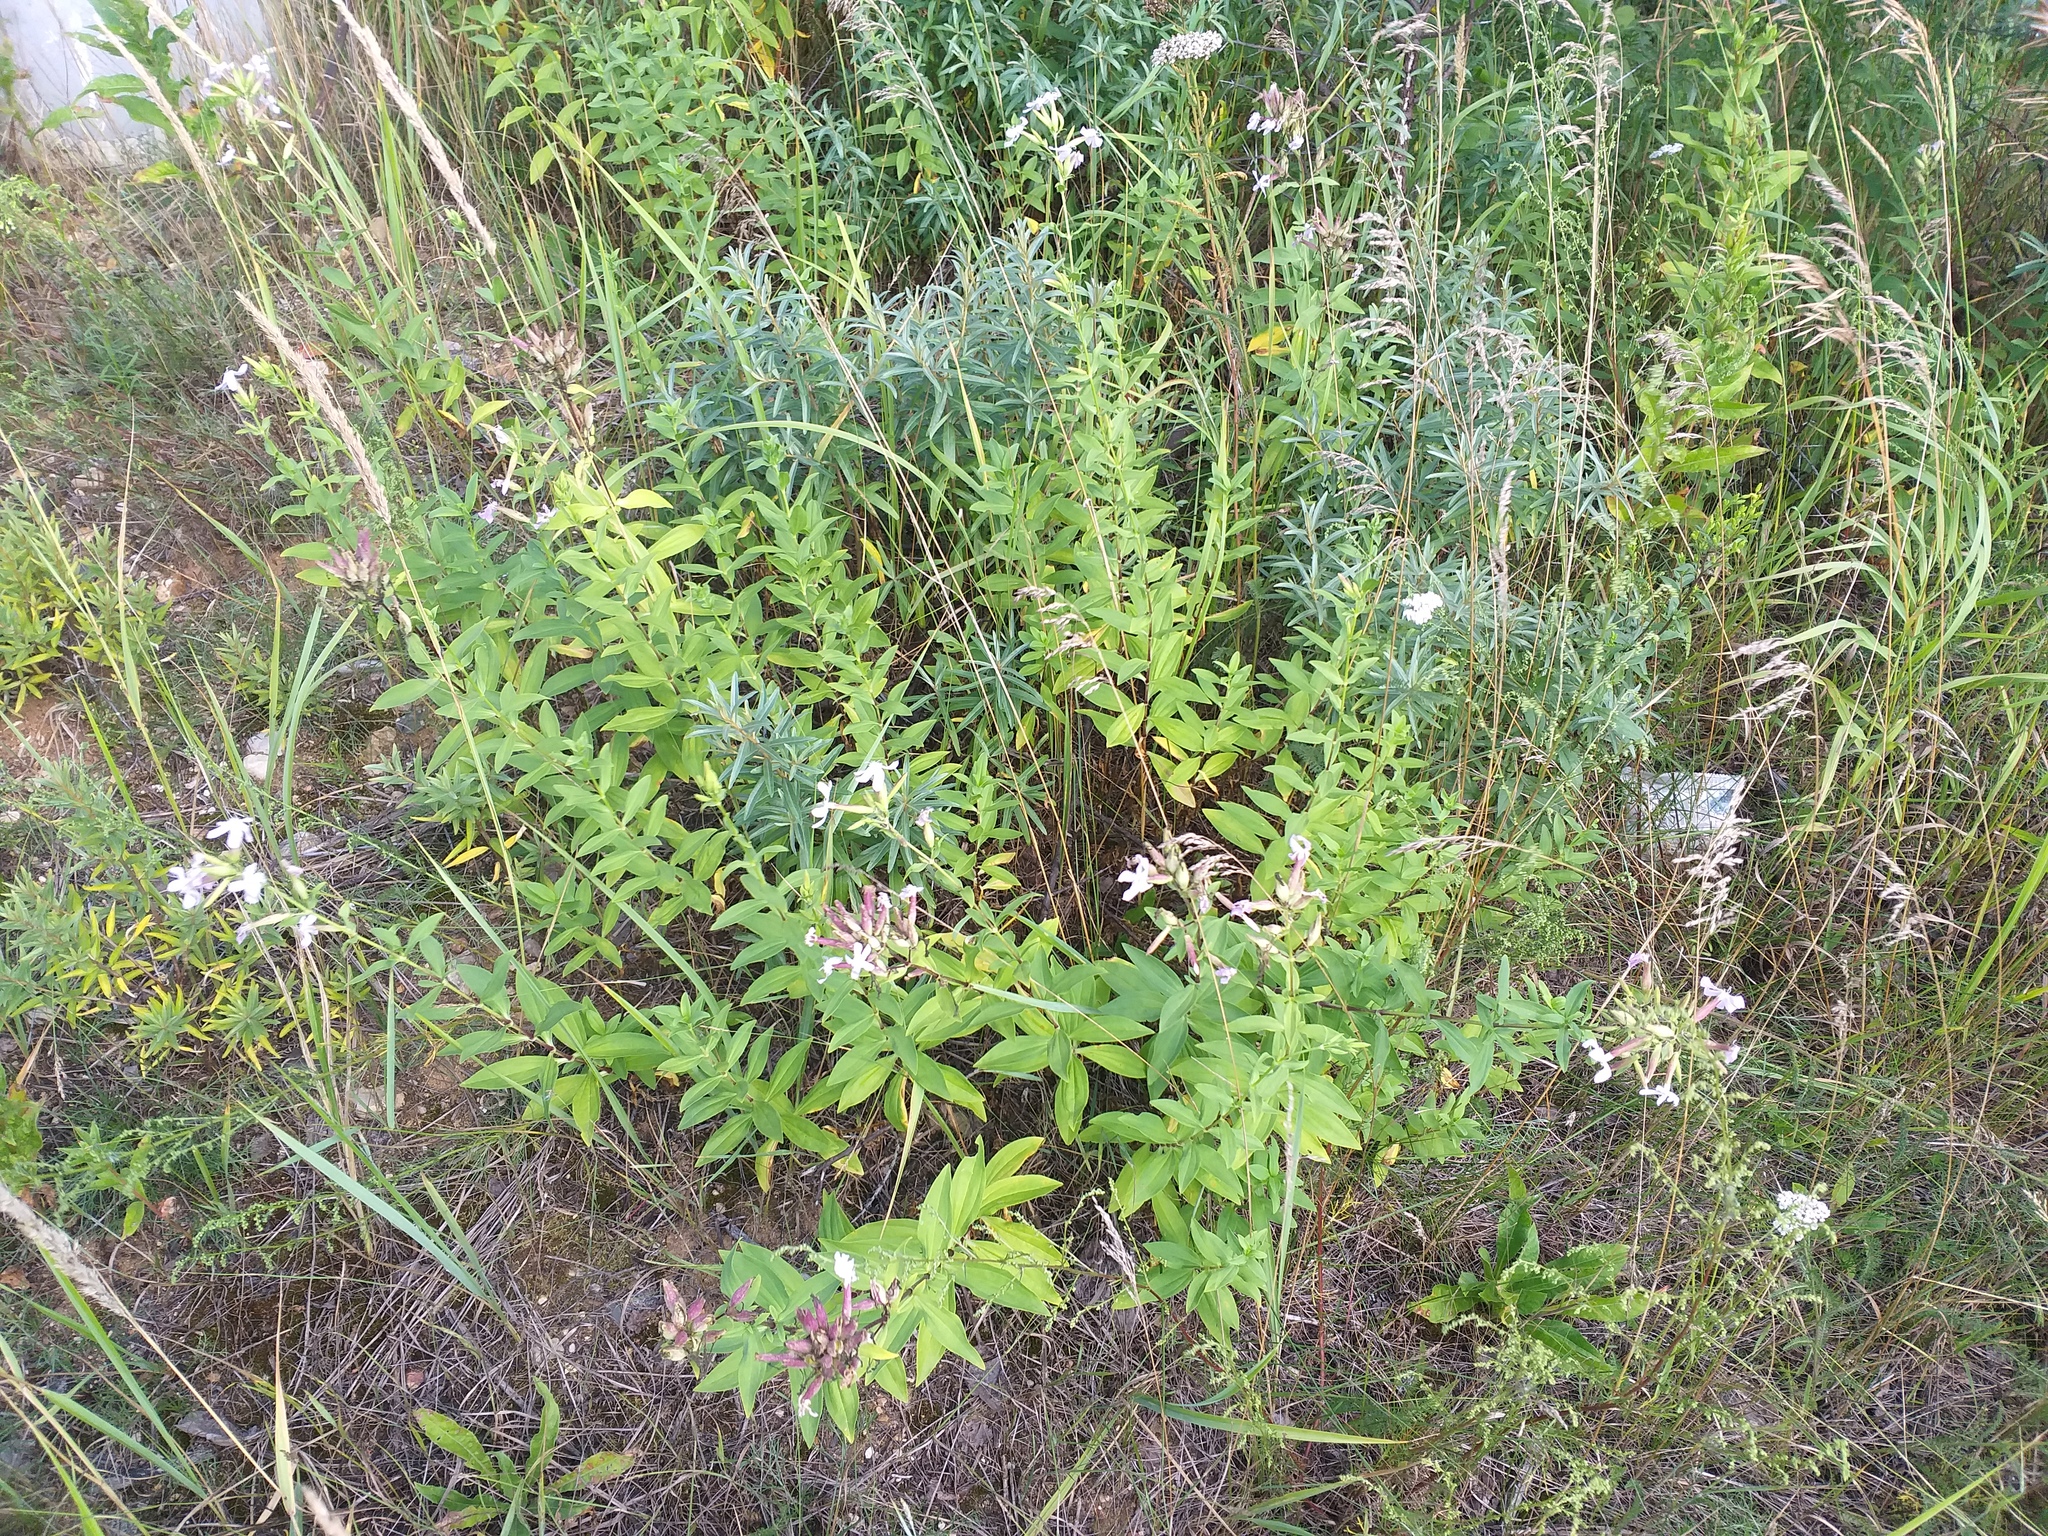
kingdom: Plantae
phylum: Tracheophyta
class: Magnoliopsida
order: Caryophyllales
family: Caryophyllaceae
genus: Saponaria
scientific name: Saponaria officinalis
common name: Soapwort
